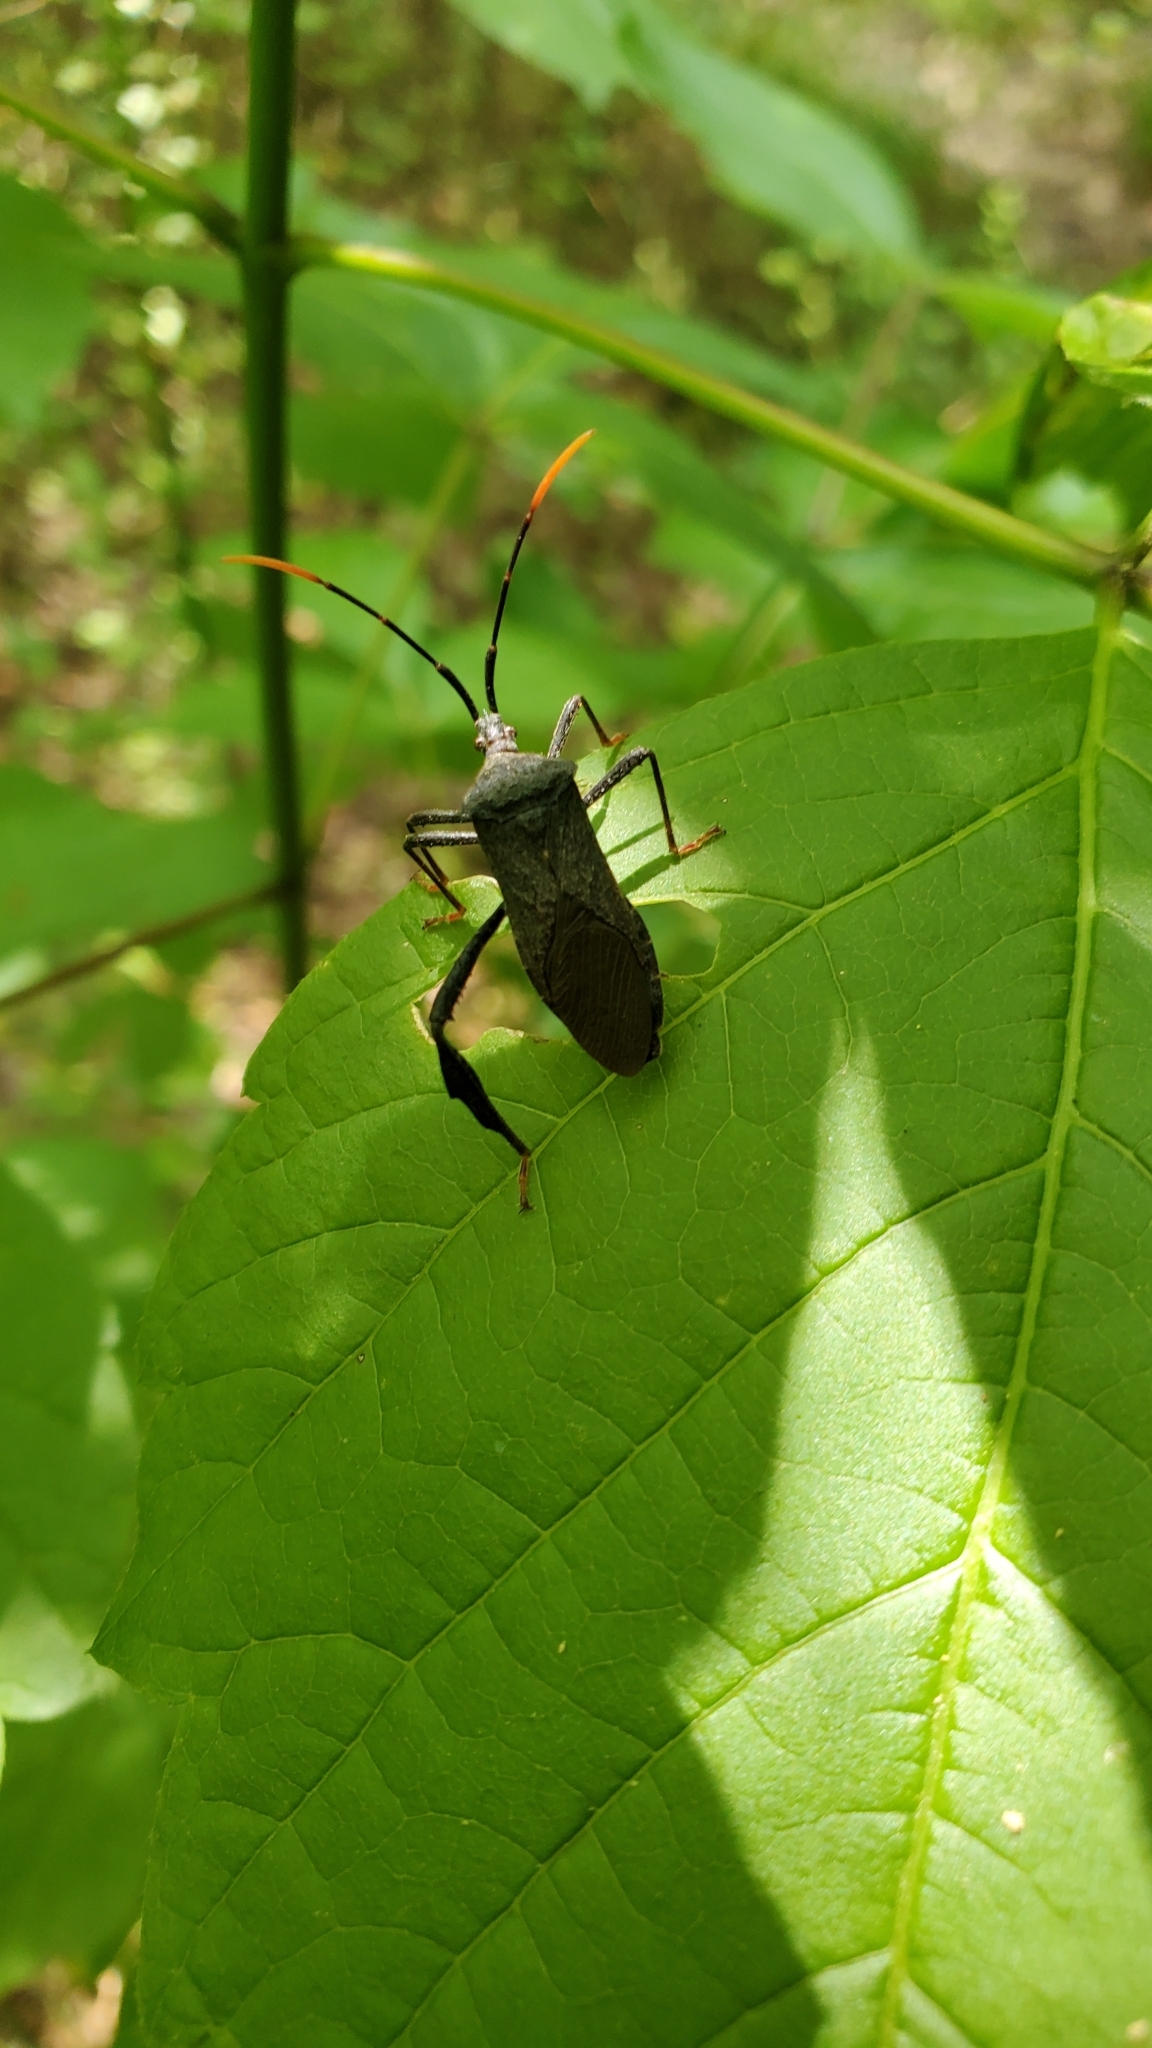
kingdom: Animalia
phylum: Arthropoda
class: Insecta
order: Hemiptera
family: Coreidae
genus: Acanthocephala
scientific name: Acanthocephala terminalis
